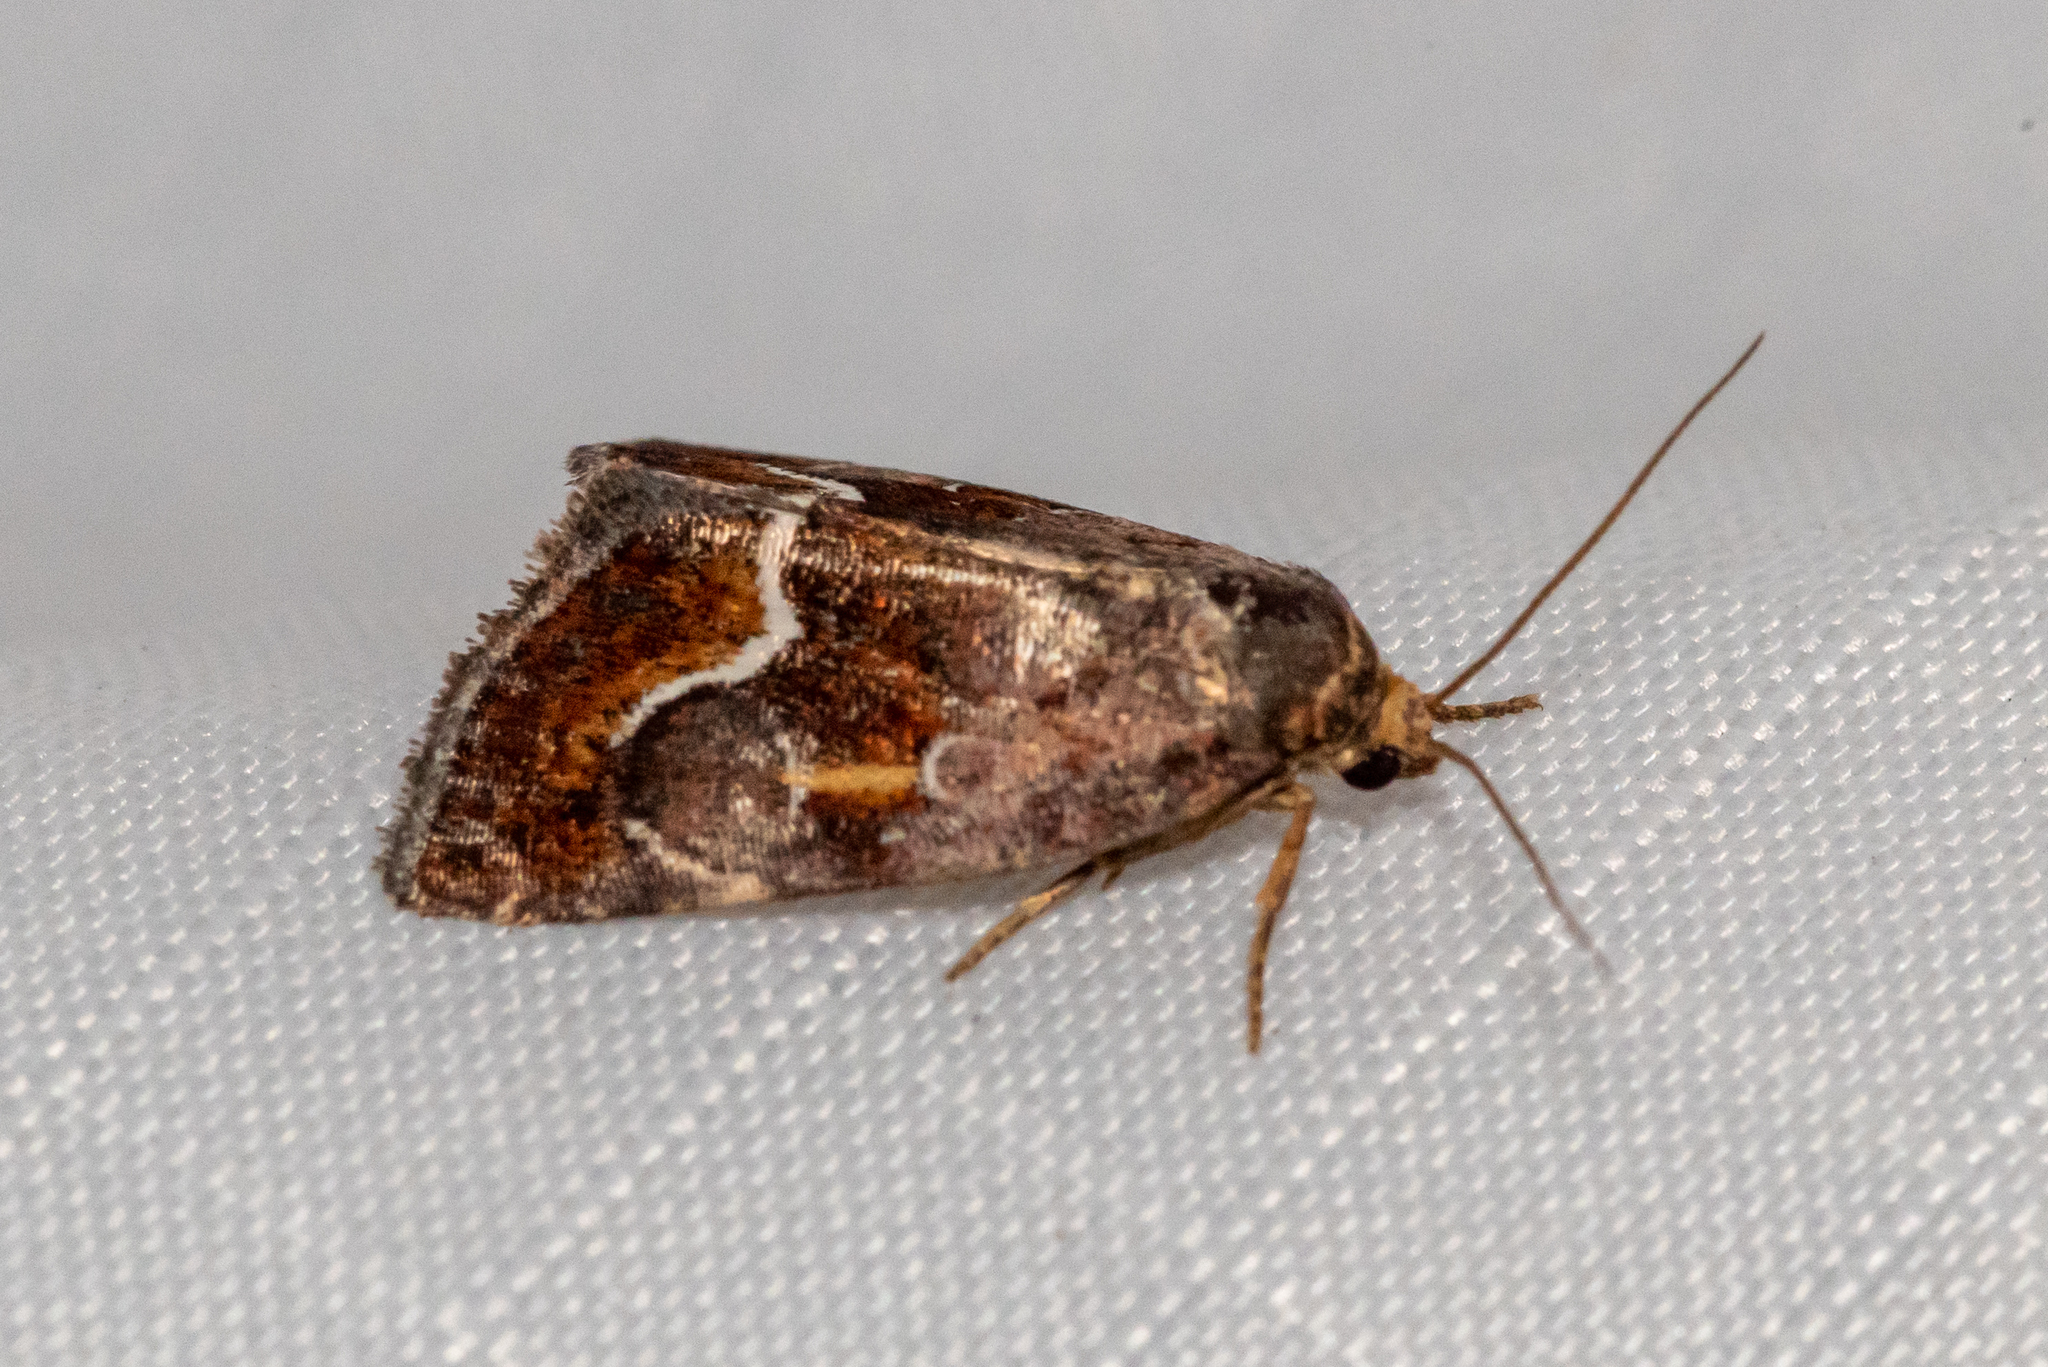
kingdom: Animalia
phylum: Arthropoda
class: Insecta
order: Lepidoptera
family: Noctuidae
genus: Deltote
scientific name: Deltote bellicula
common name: Bog glyph
